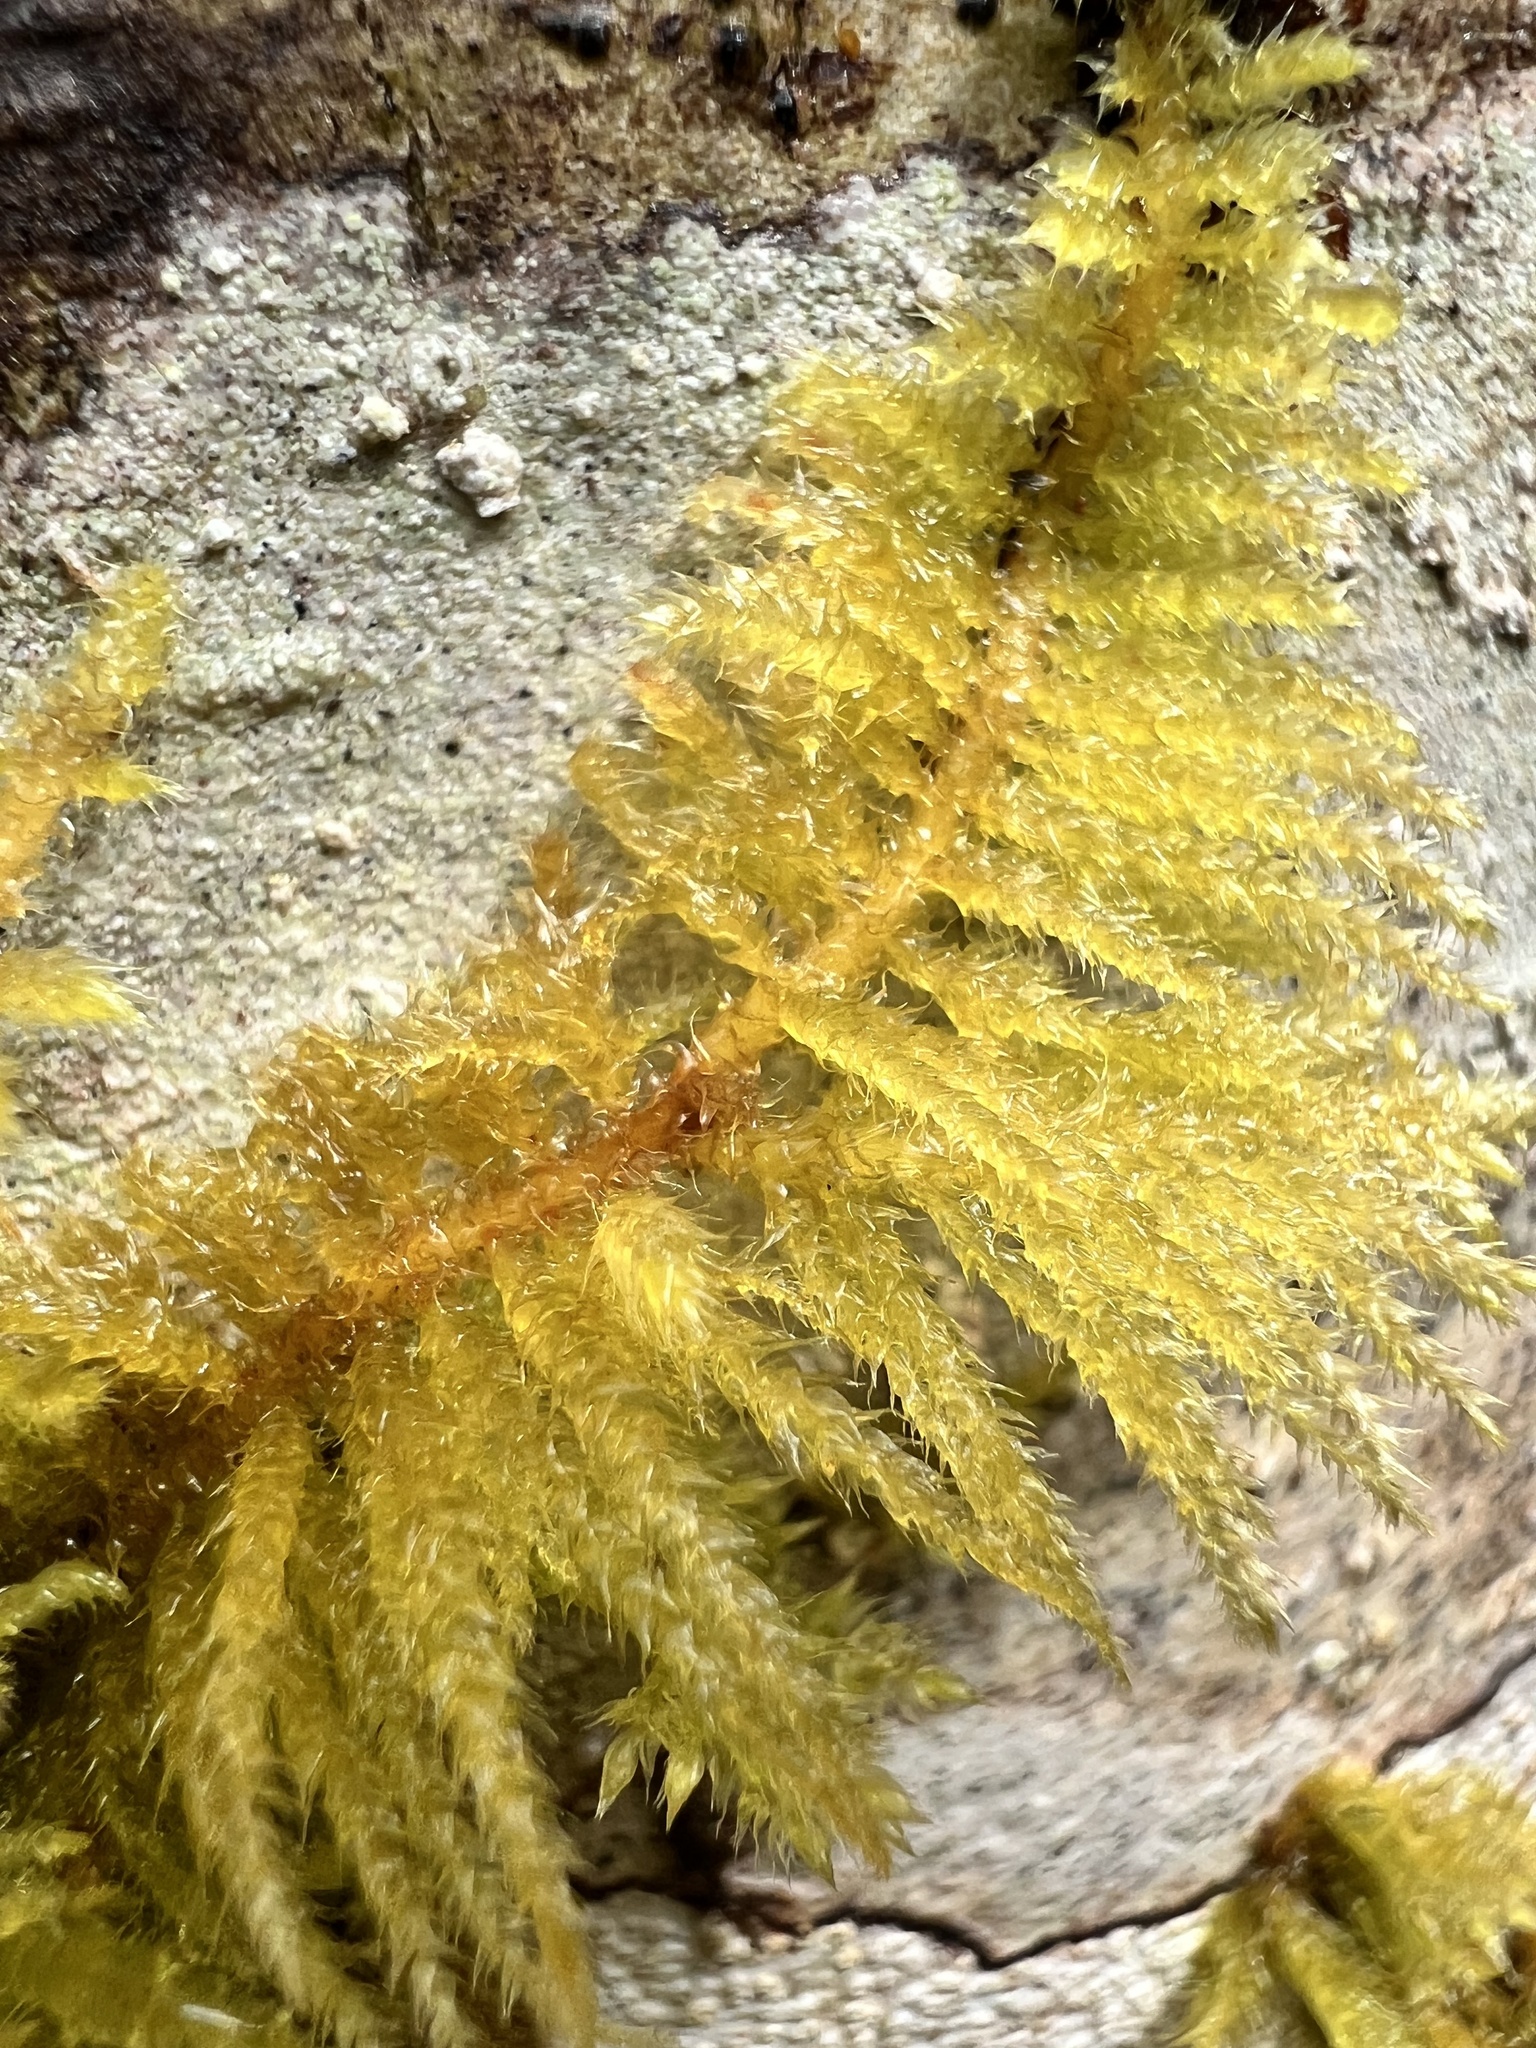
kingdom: Plantae
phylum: Bryophyta
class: Bryopsida
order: Hypnales
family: Brachytheciaceae
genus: Kindbergia
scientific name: Kindbergia oregana
